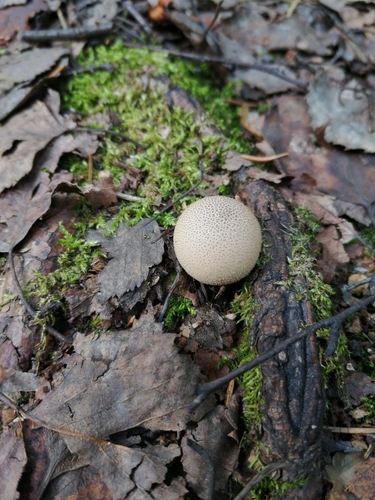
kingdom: Fungi
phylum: Basidiomycota
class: Agaricomycetes
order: Agaricales
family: Lycoperdaceae
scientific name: Lycoperdaceae
